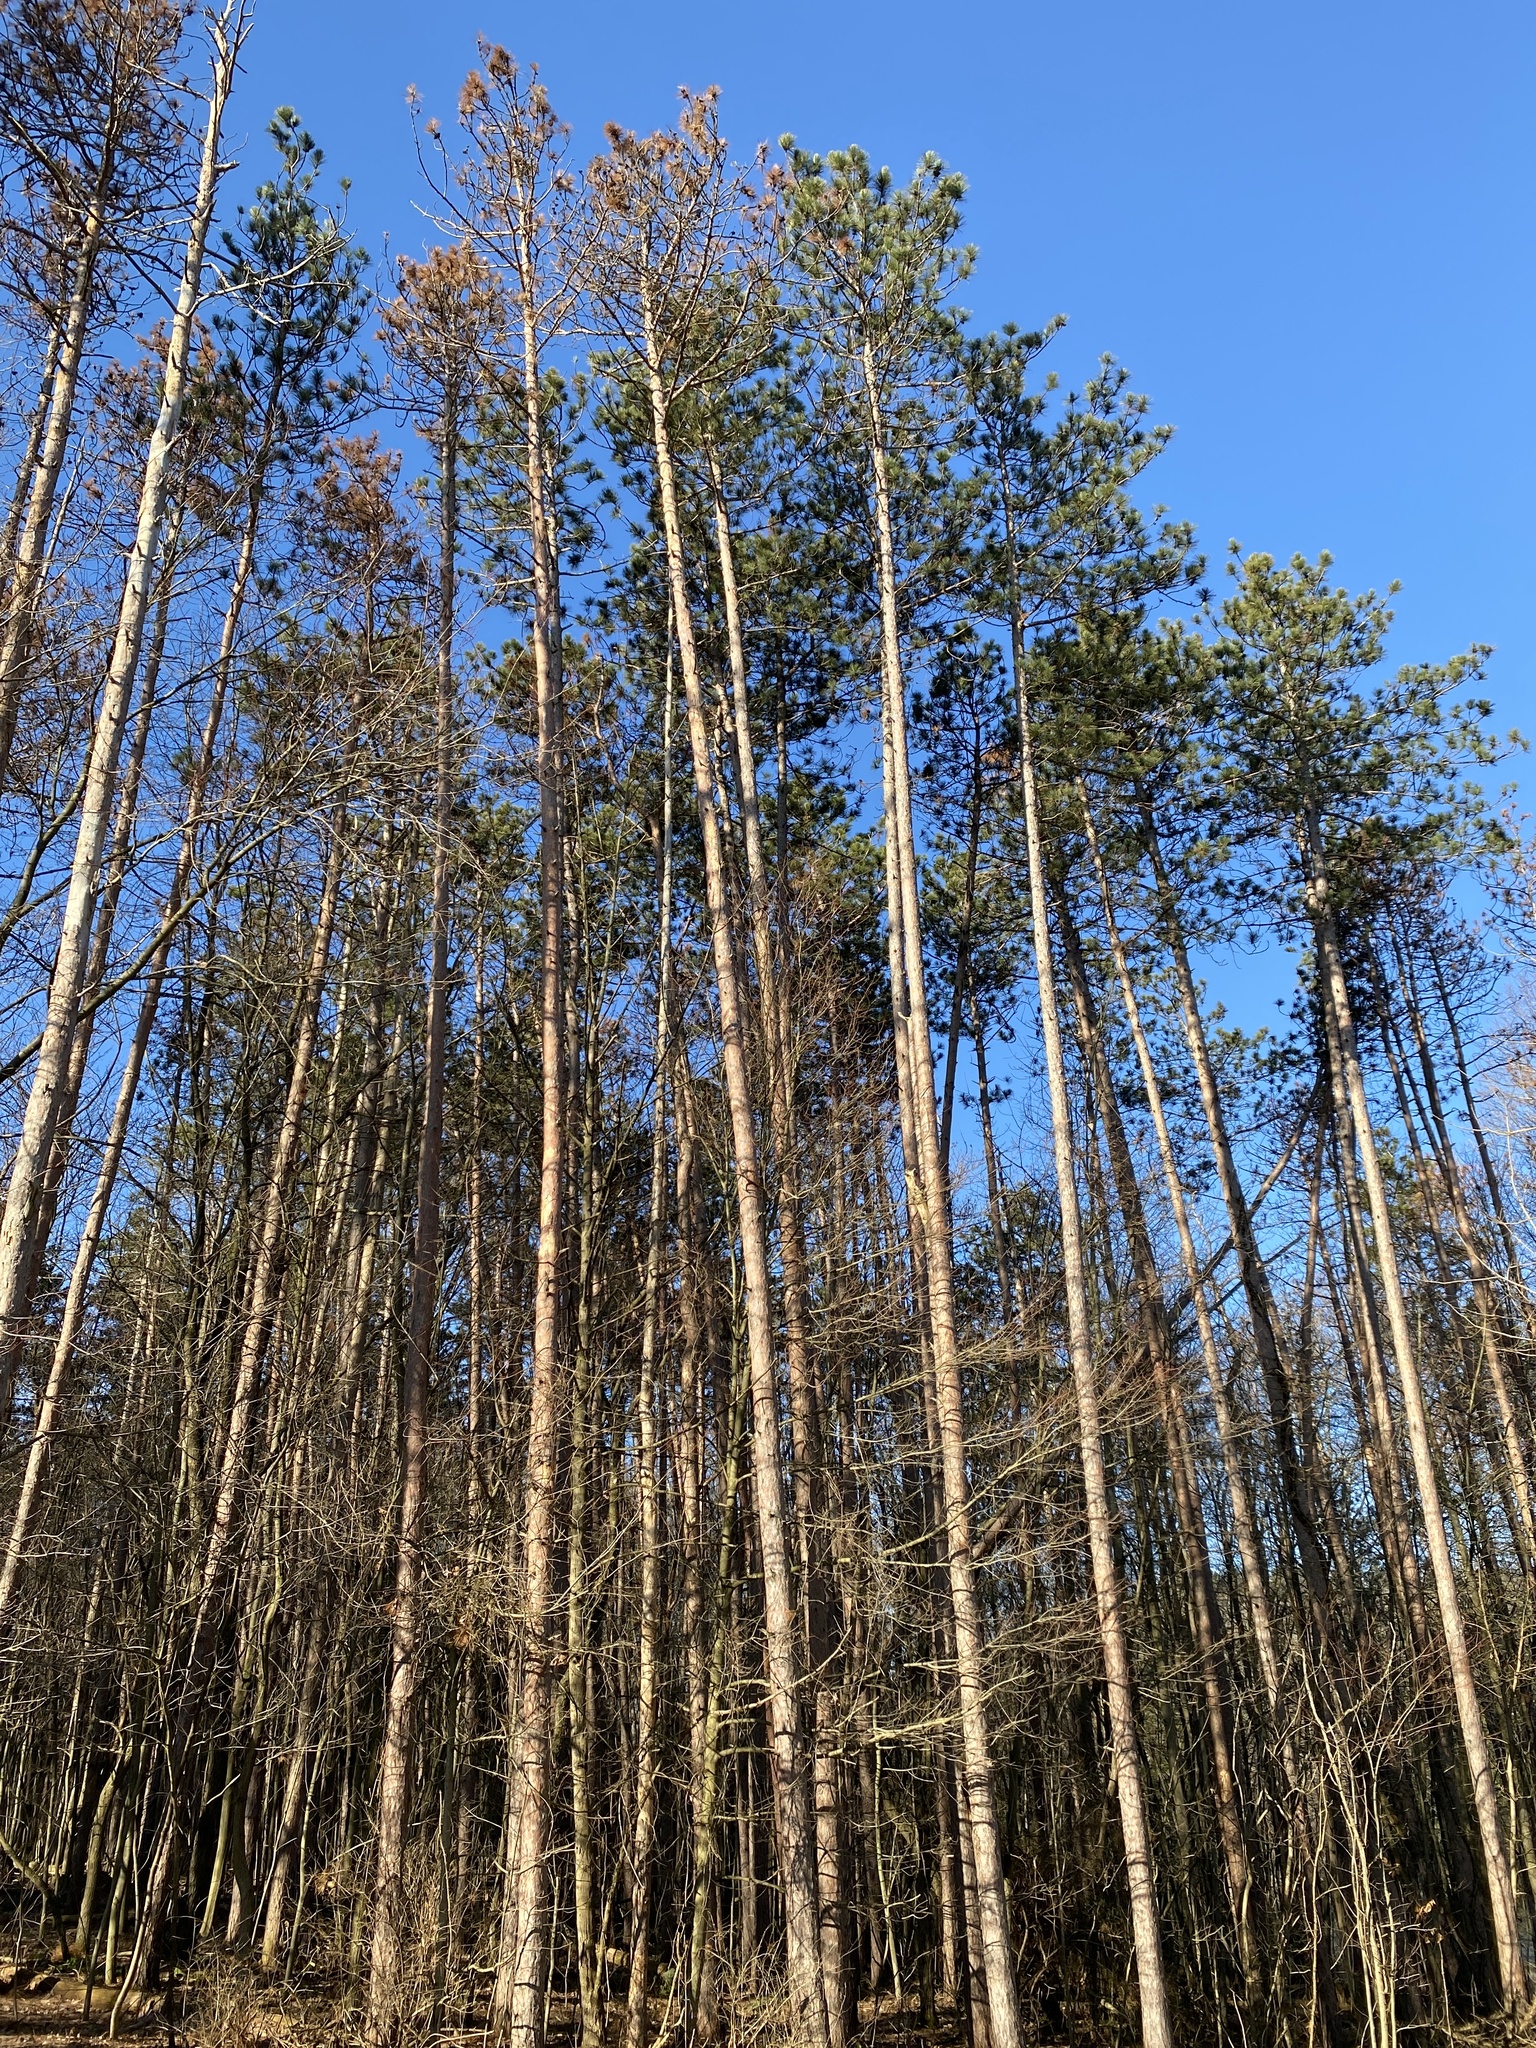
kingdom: Plantae
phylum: Tracheophyta
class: Pinopsida
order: Pinales
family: Pinaceae
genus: Pinus
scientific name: Pinus resinosa
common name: Norway pine
